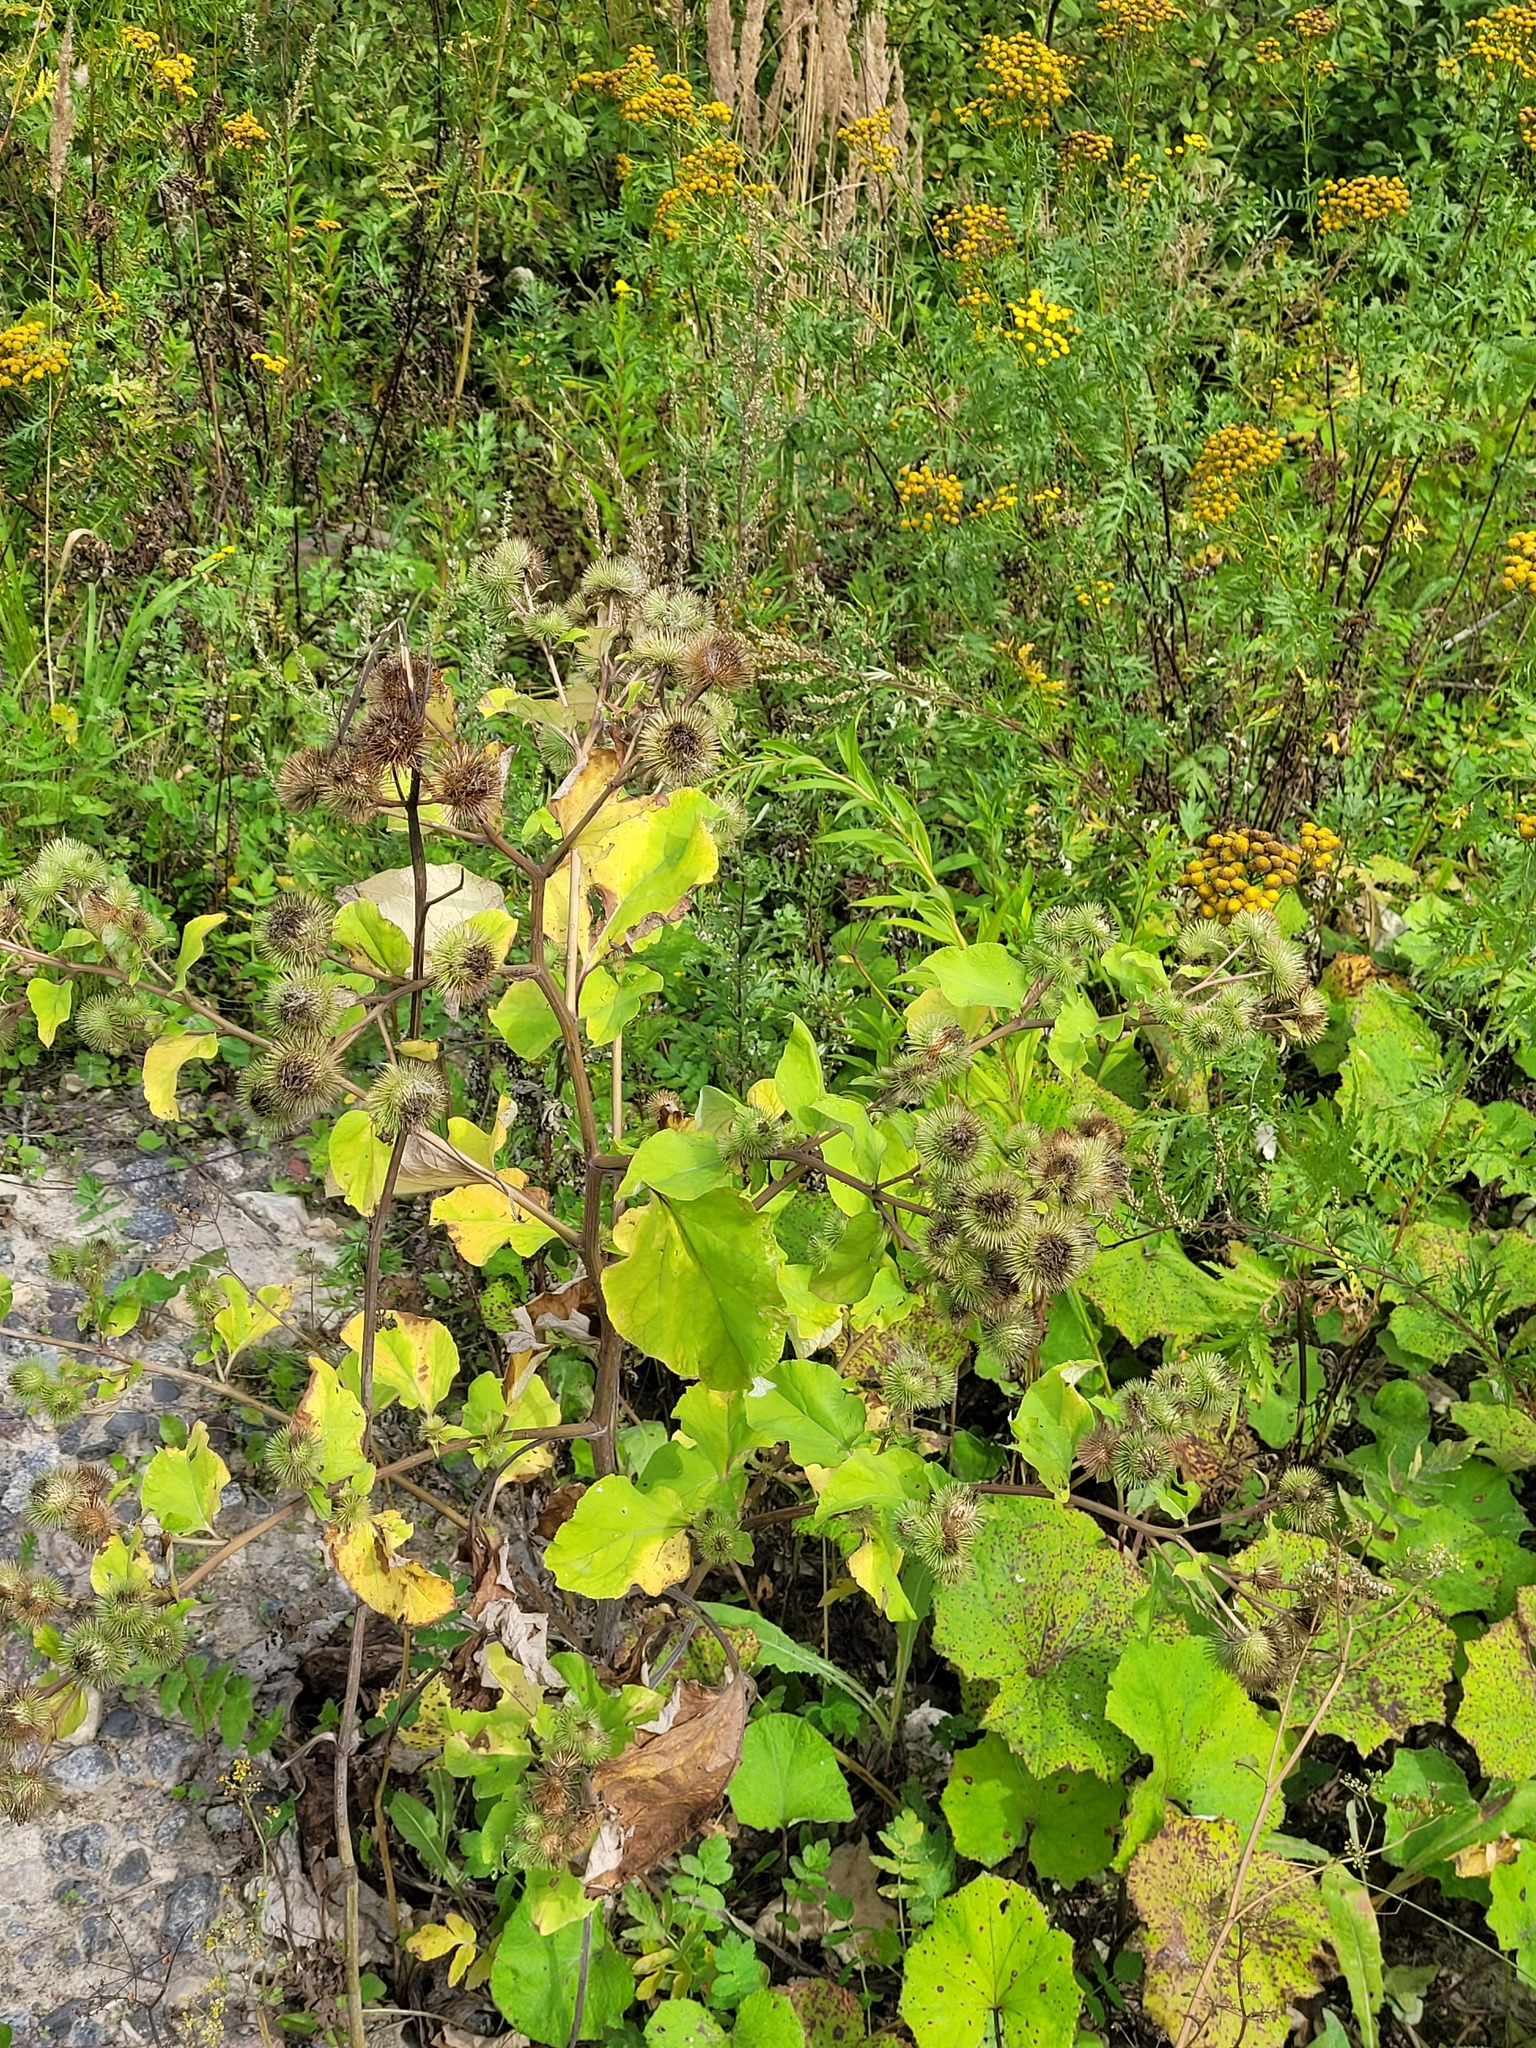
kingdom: Plantae
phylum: Tracheophyta
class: Magnoliopsida
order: Asterales
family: Asteraceae
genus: Arctium
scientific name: Arctium lappa
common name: Greater burdock
